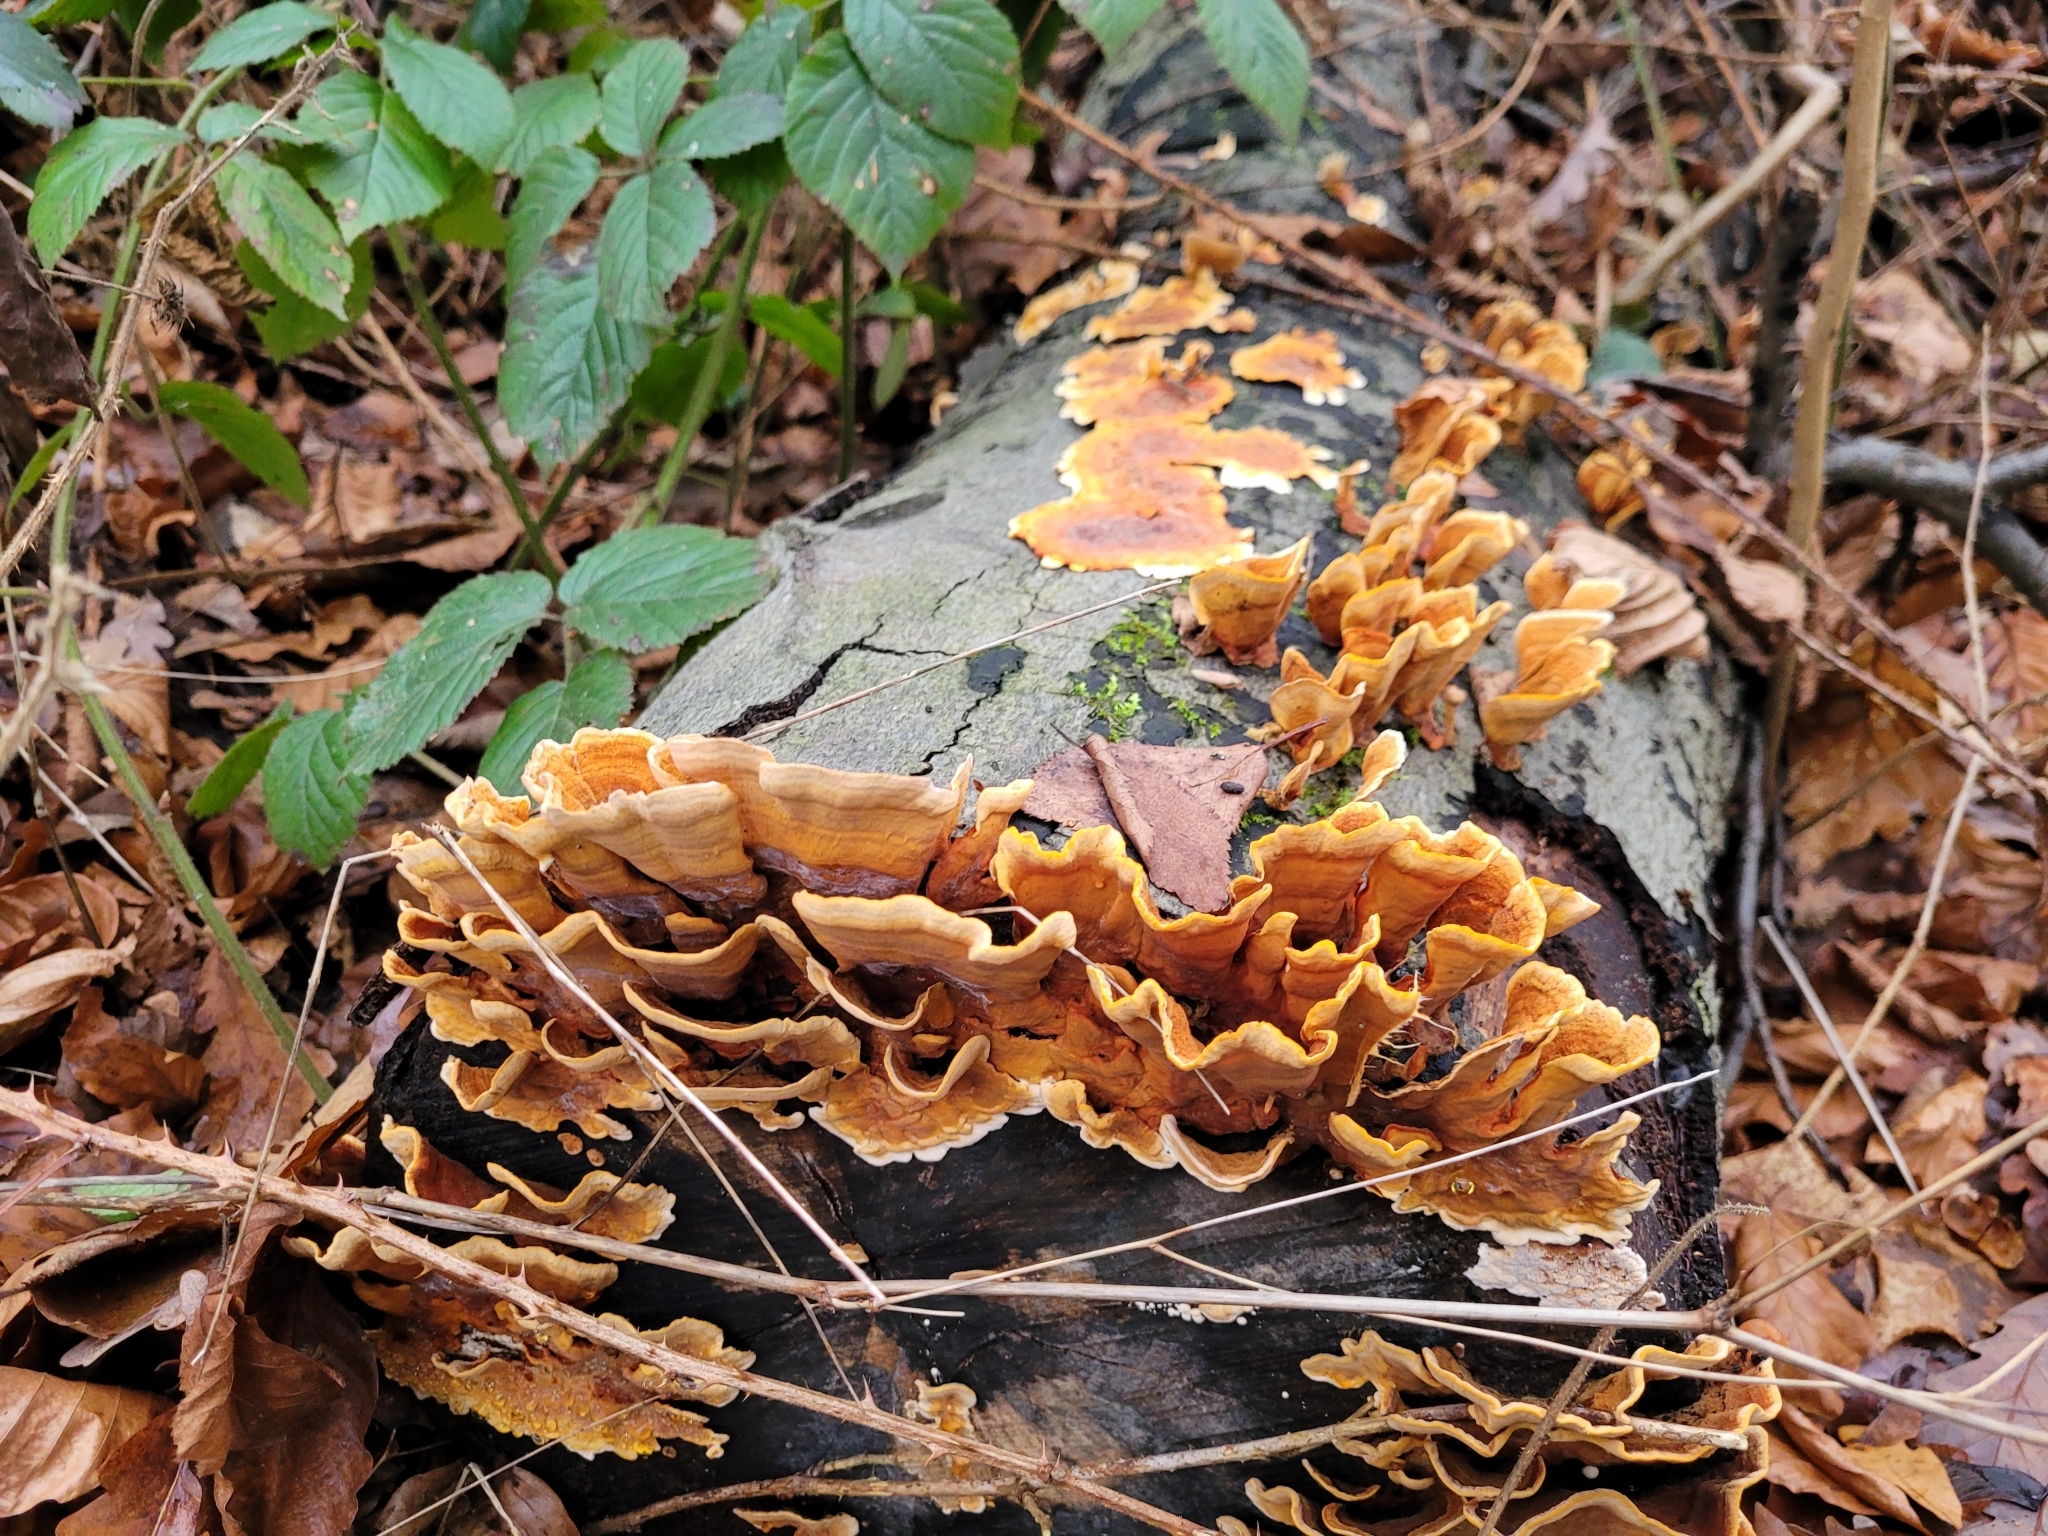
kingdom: Fungi
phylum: Basidiomycota
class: Agaricomycetes
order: Russulales
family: Stereaceae
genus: Stereum
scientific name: Stereum hirsutum
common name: Hairy curtain crust
